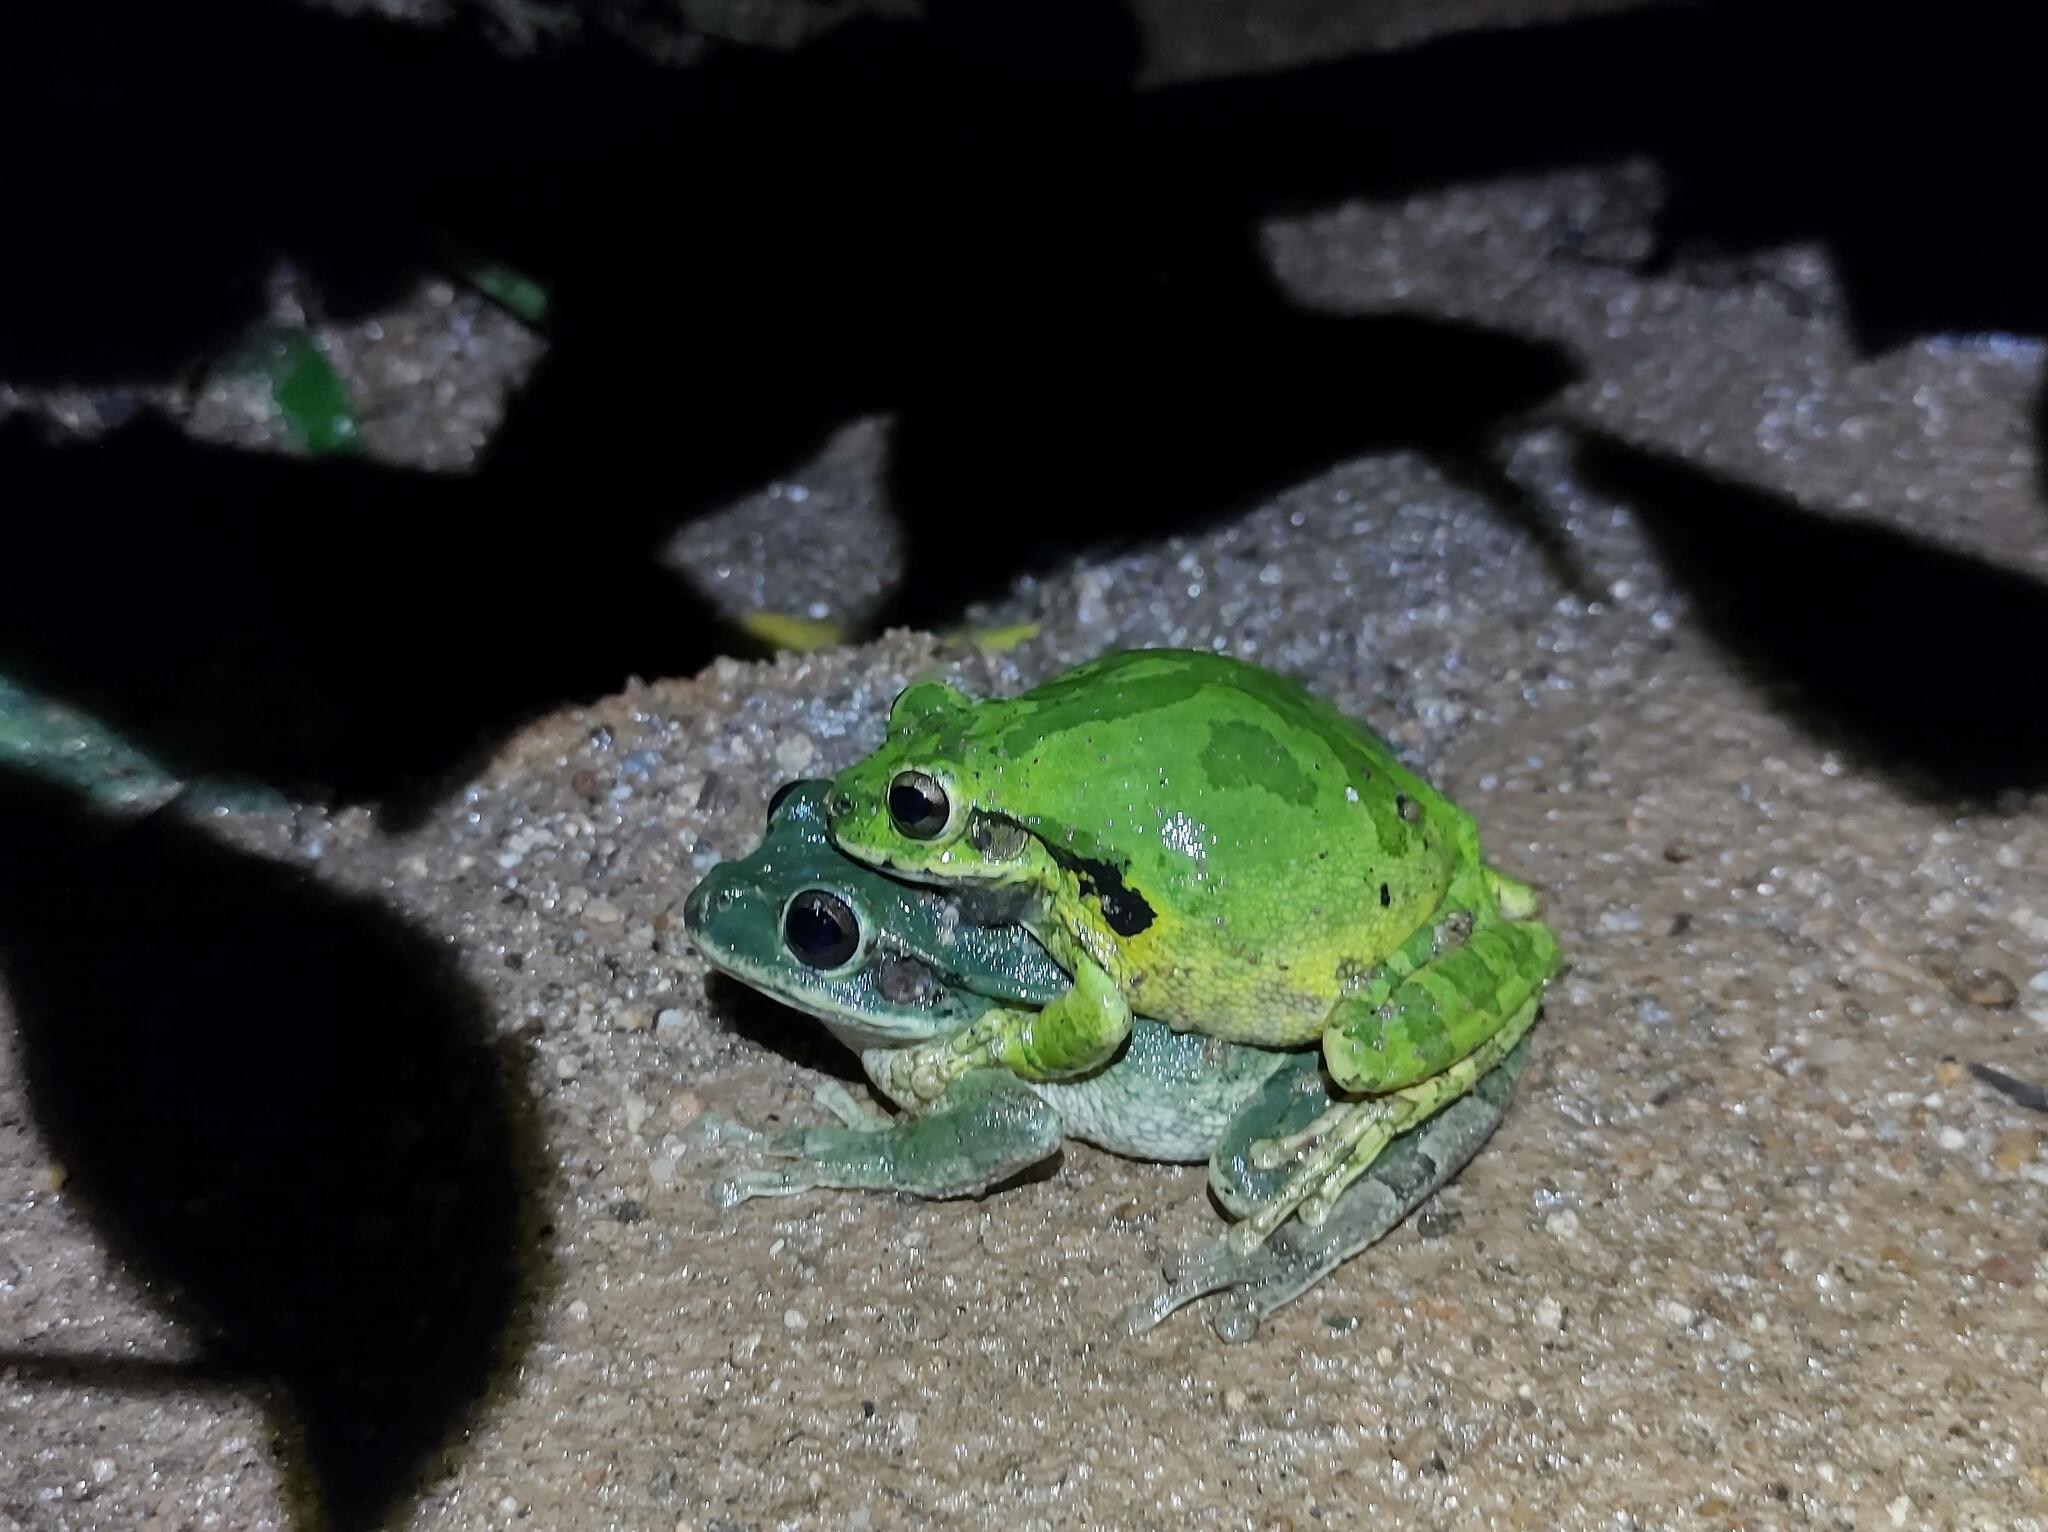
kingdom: Animalia
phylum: Chordata
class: Amphibia
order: Anura
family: Hylidae
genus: Smilisca
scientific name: Smilisca baudinii
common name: Mexican smilisca
